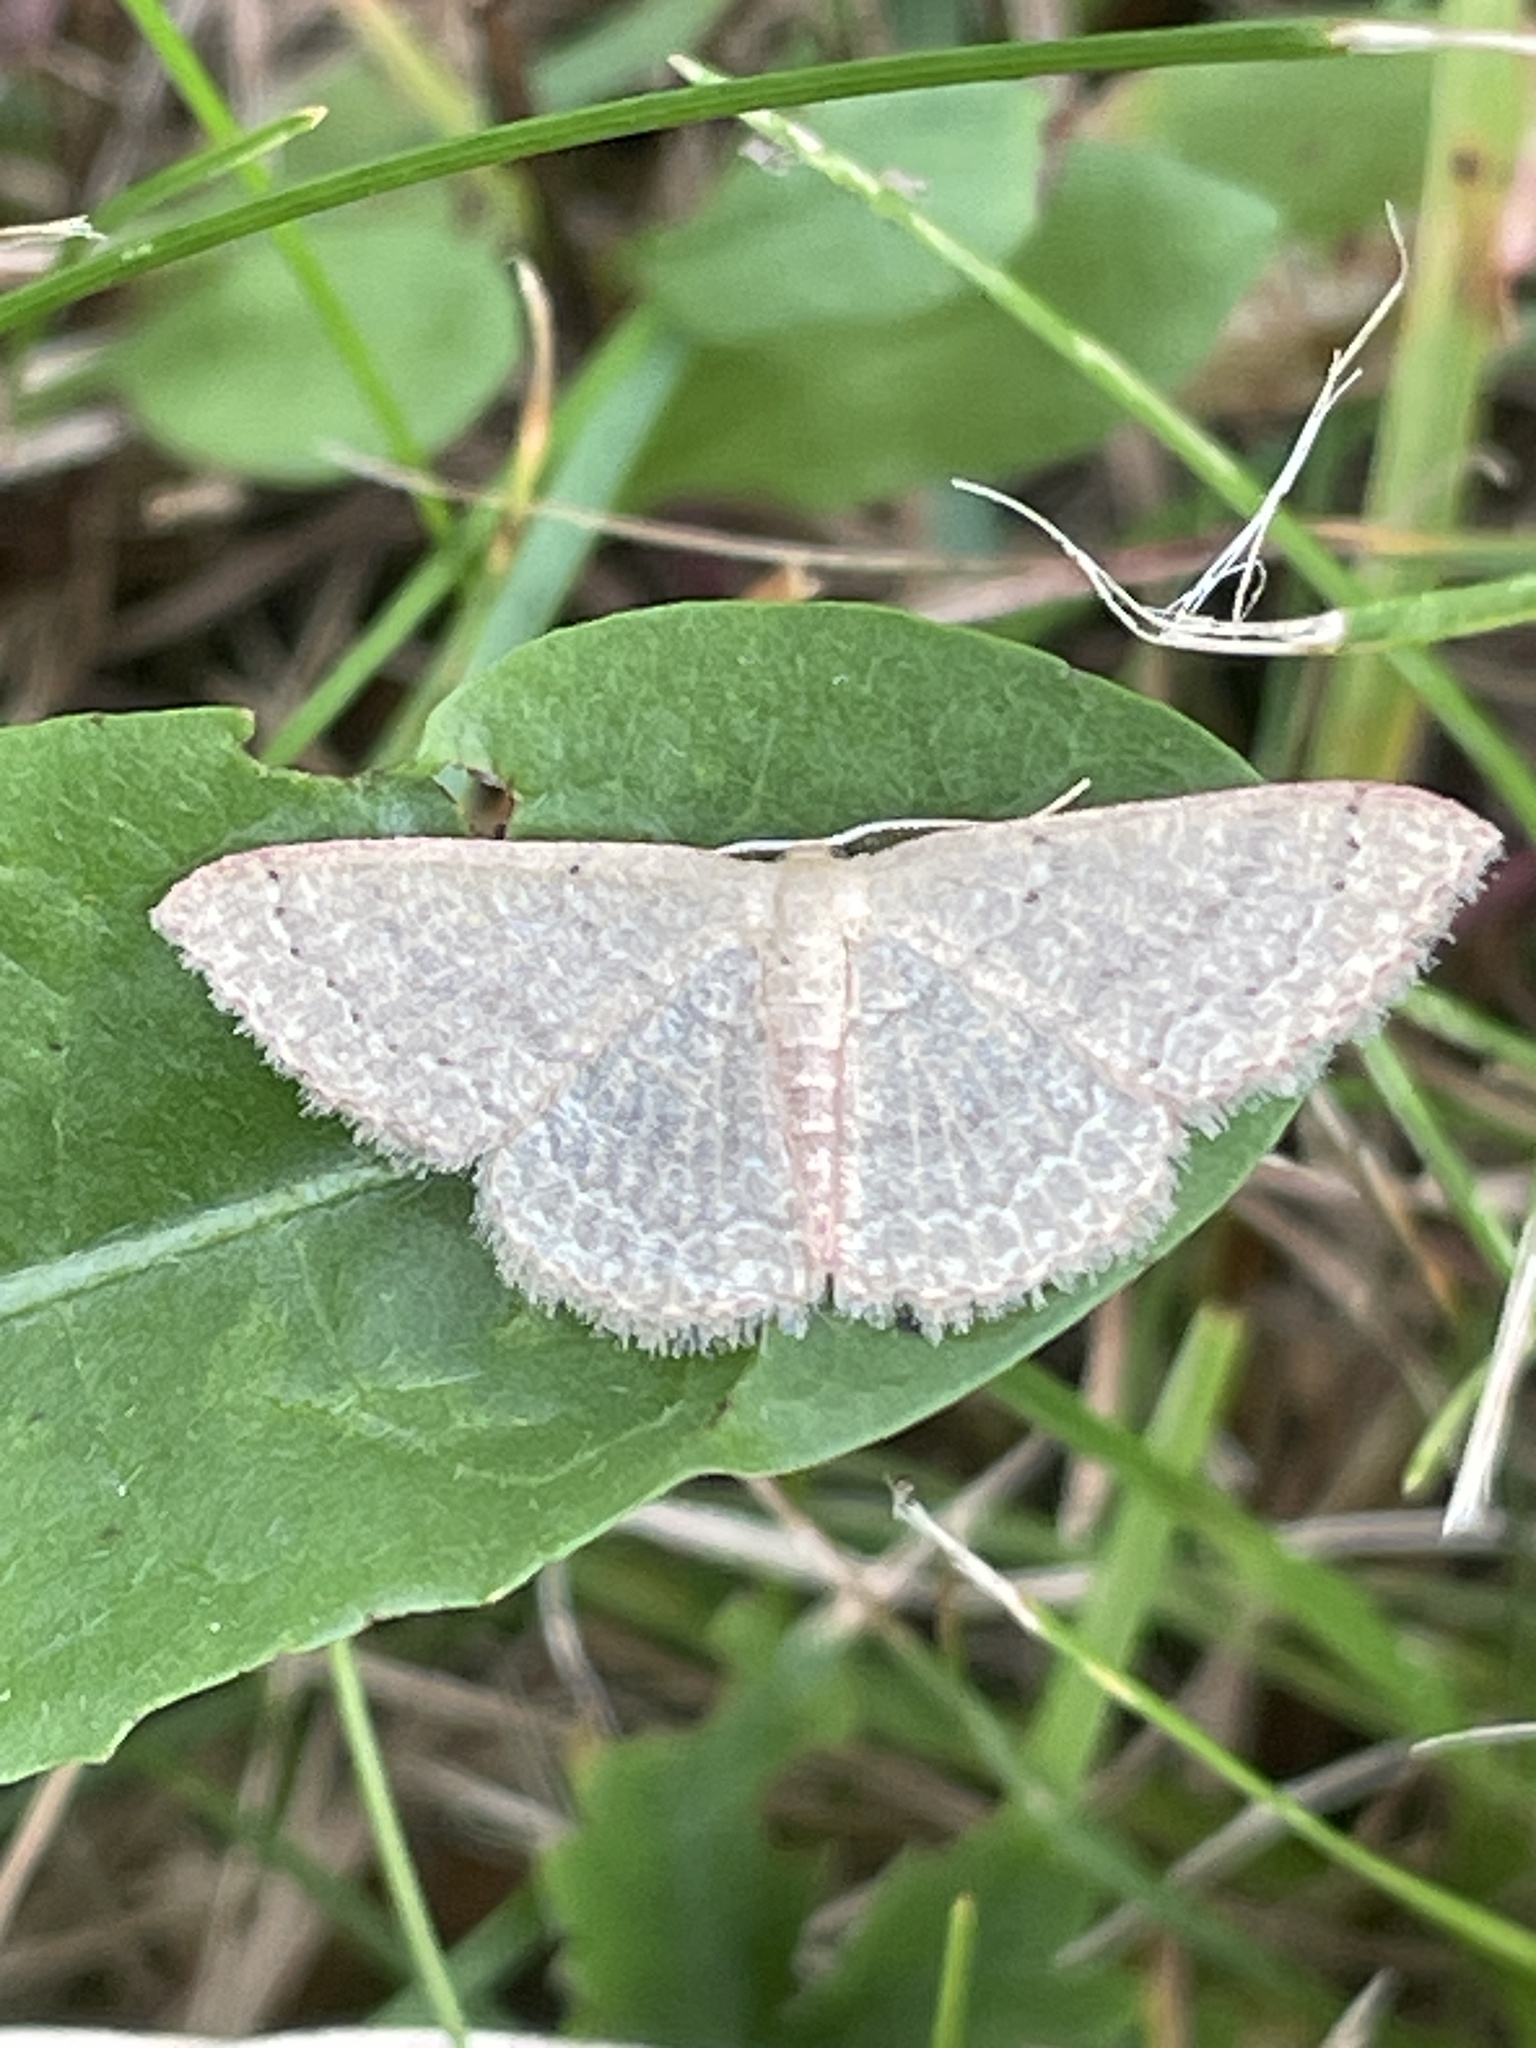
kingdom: Animalia
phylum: Arthropoda
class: Insecta
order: Lepidoptera
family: Geometridae
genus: Pleuroprucha
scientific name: Pleuroprucha insulsaria
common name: Common tan wave
